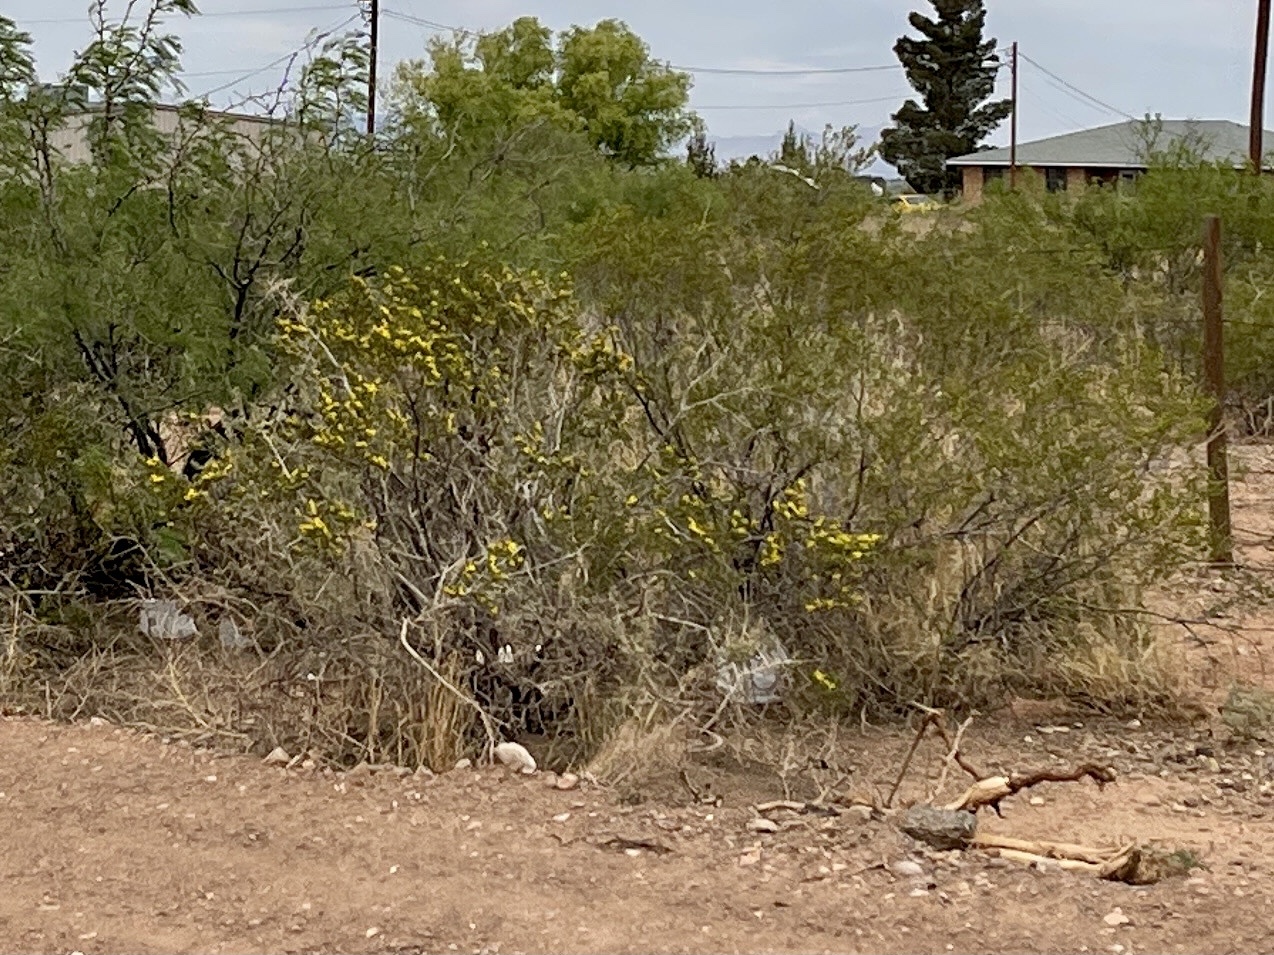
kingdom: Plantae
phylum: Tracheophyta
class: Magnoliopsida
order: Zygophyllales
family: Zygophyllaceae
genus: Larrea
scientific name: Larrea tridentata
